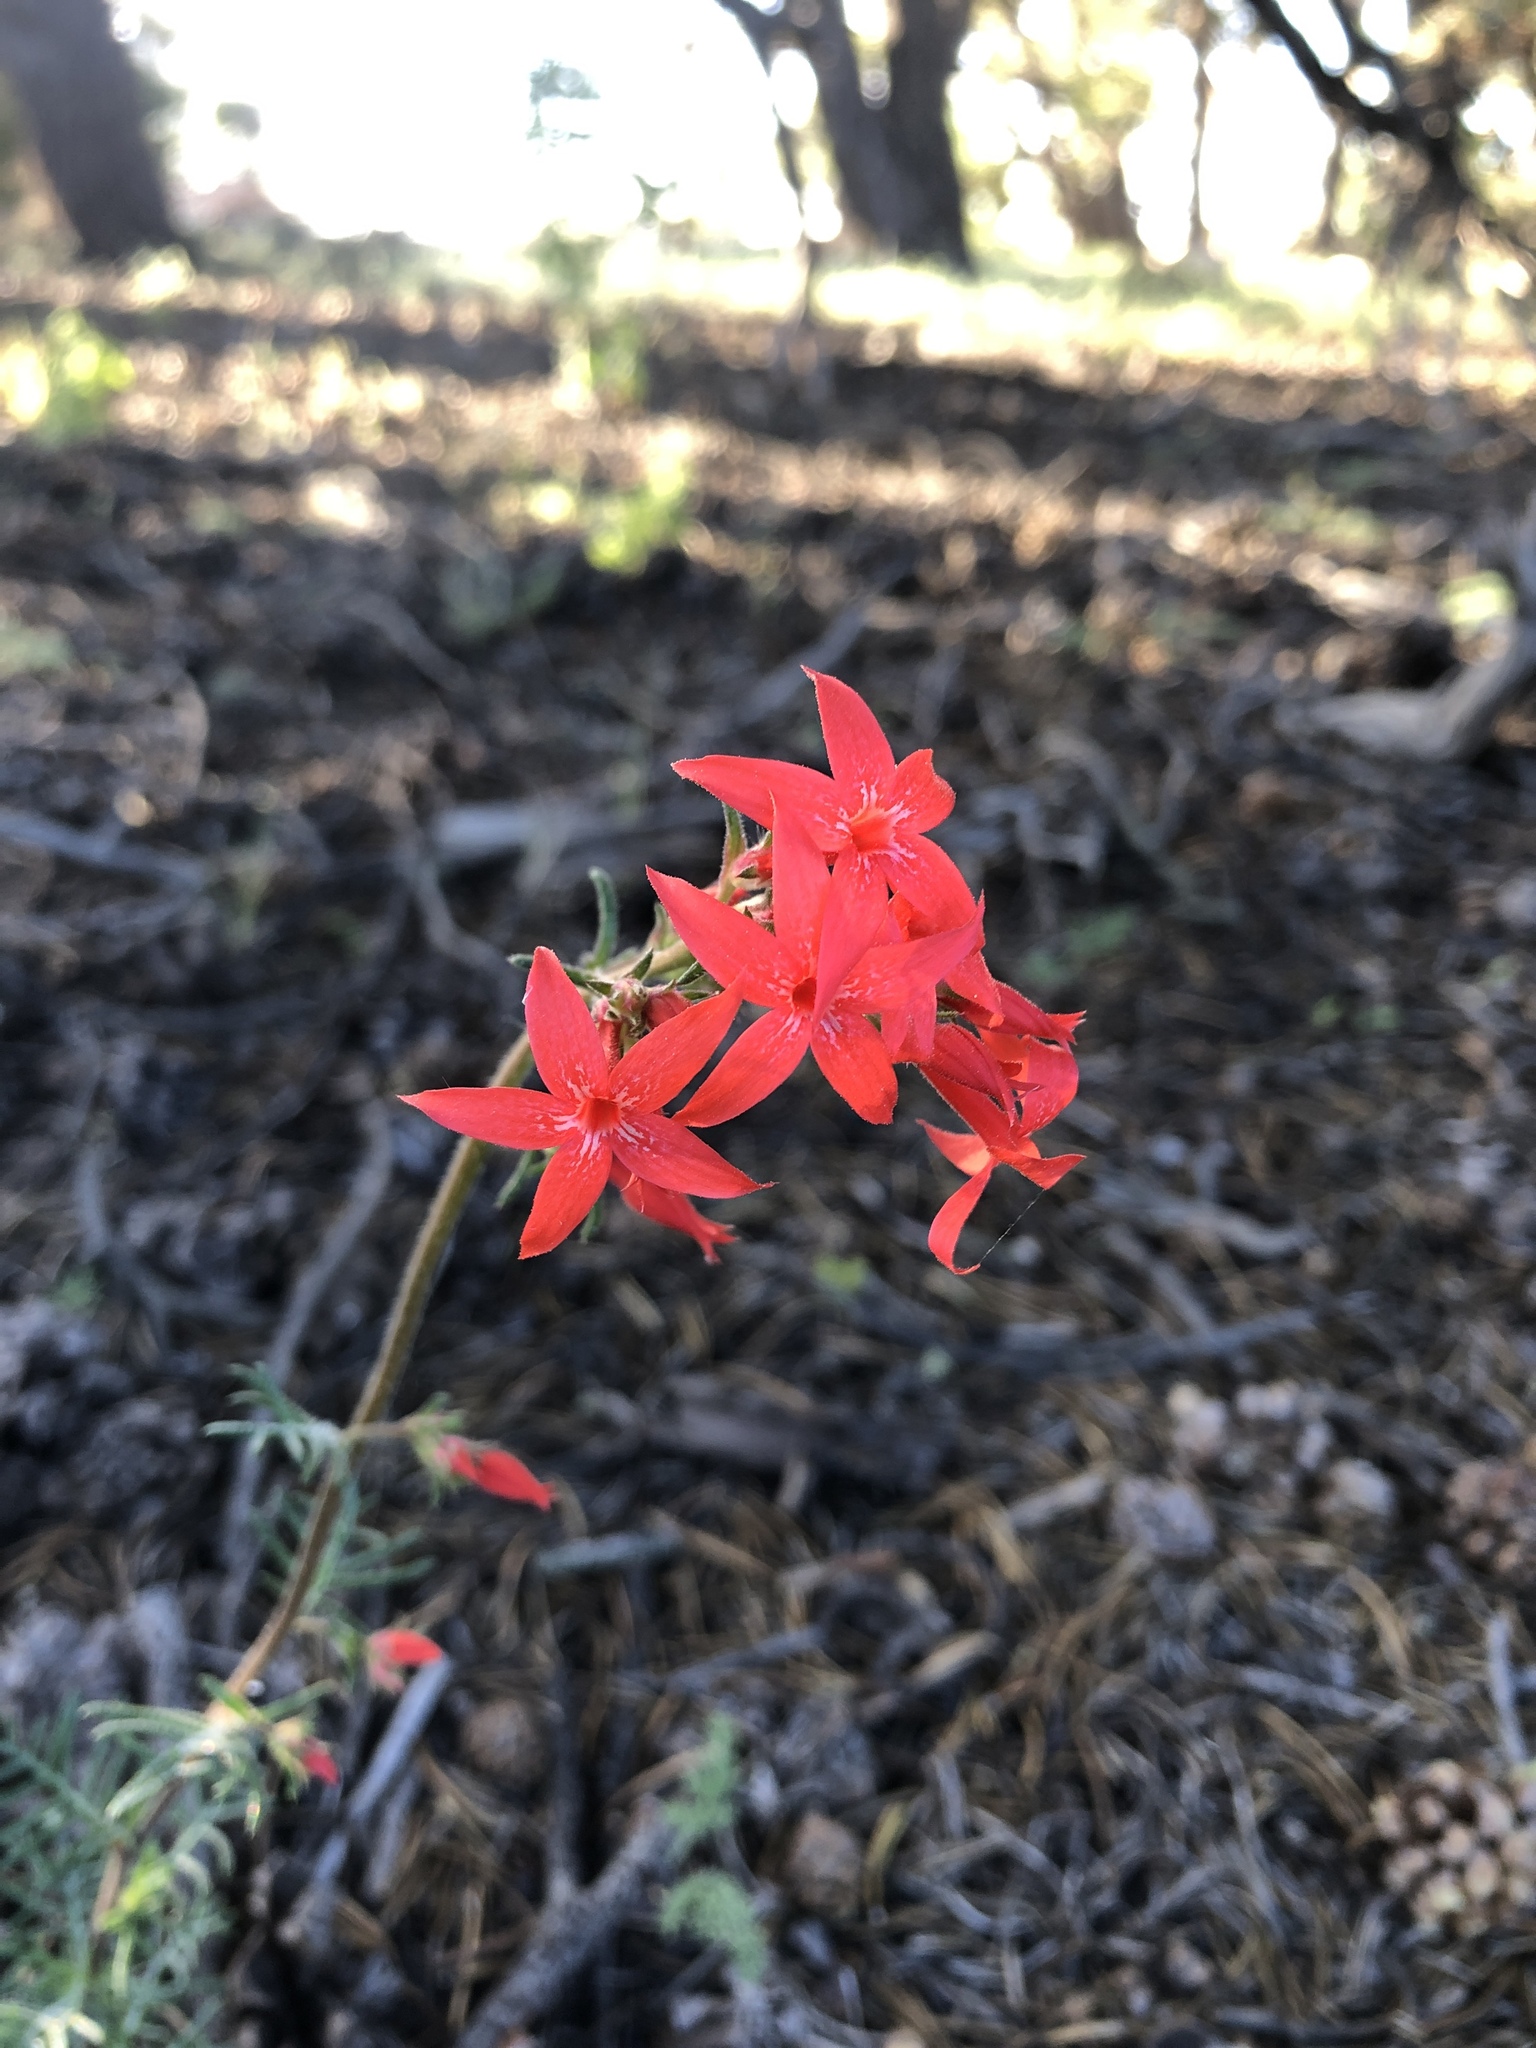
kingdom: Plantae
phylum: Tracheophyta
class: Magnoliopsida
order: Ericales
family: Polemoniaceae
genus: Ipomopsis
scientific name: Ipomopsis arizonica
